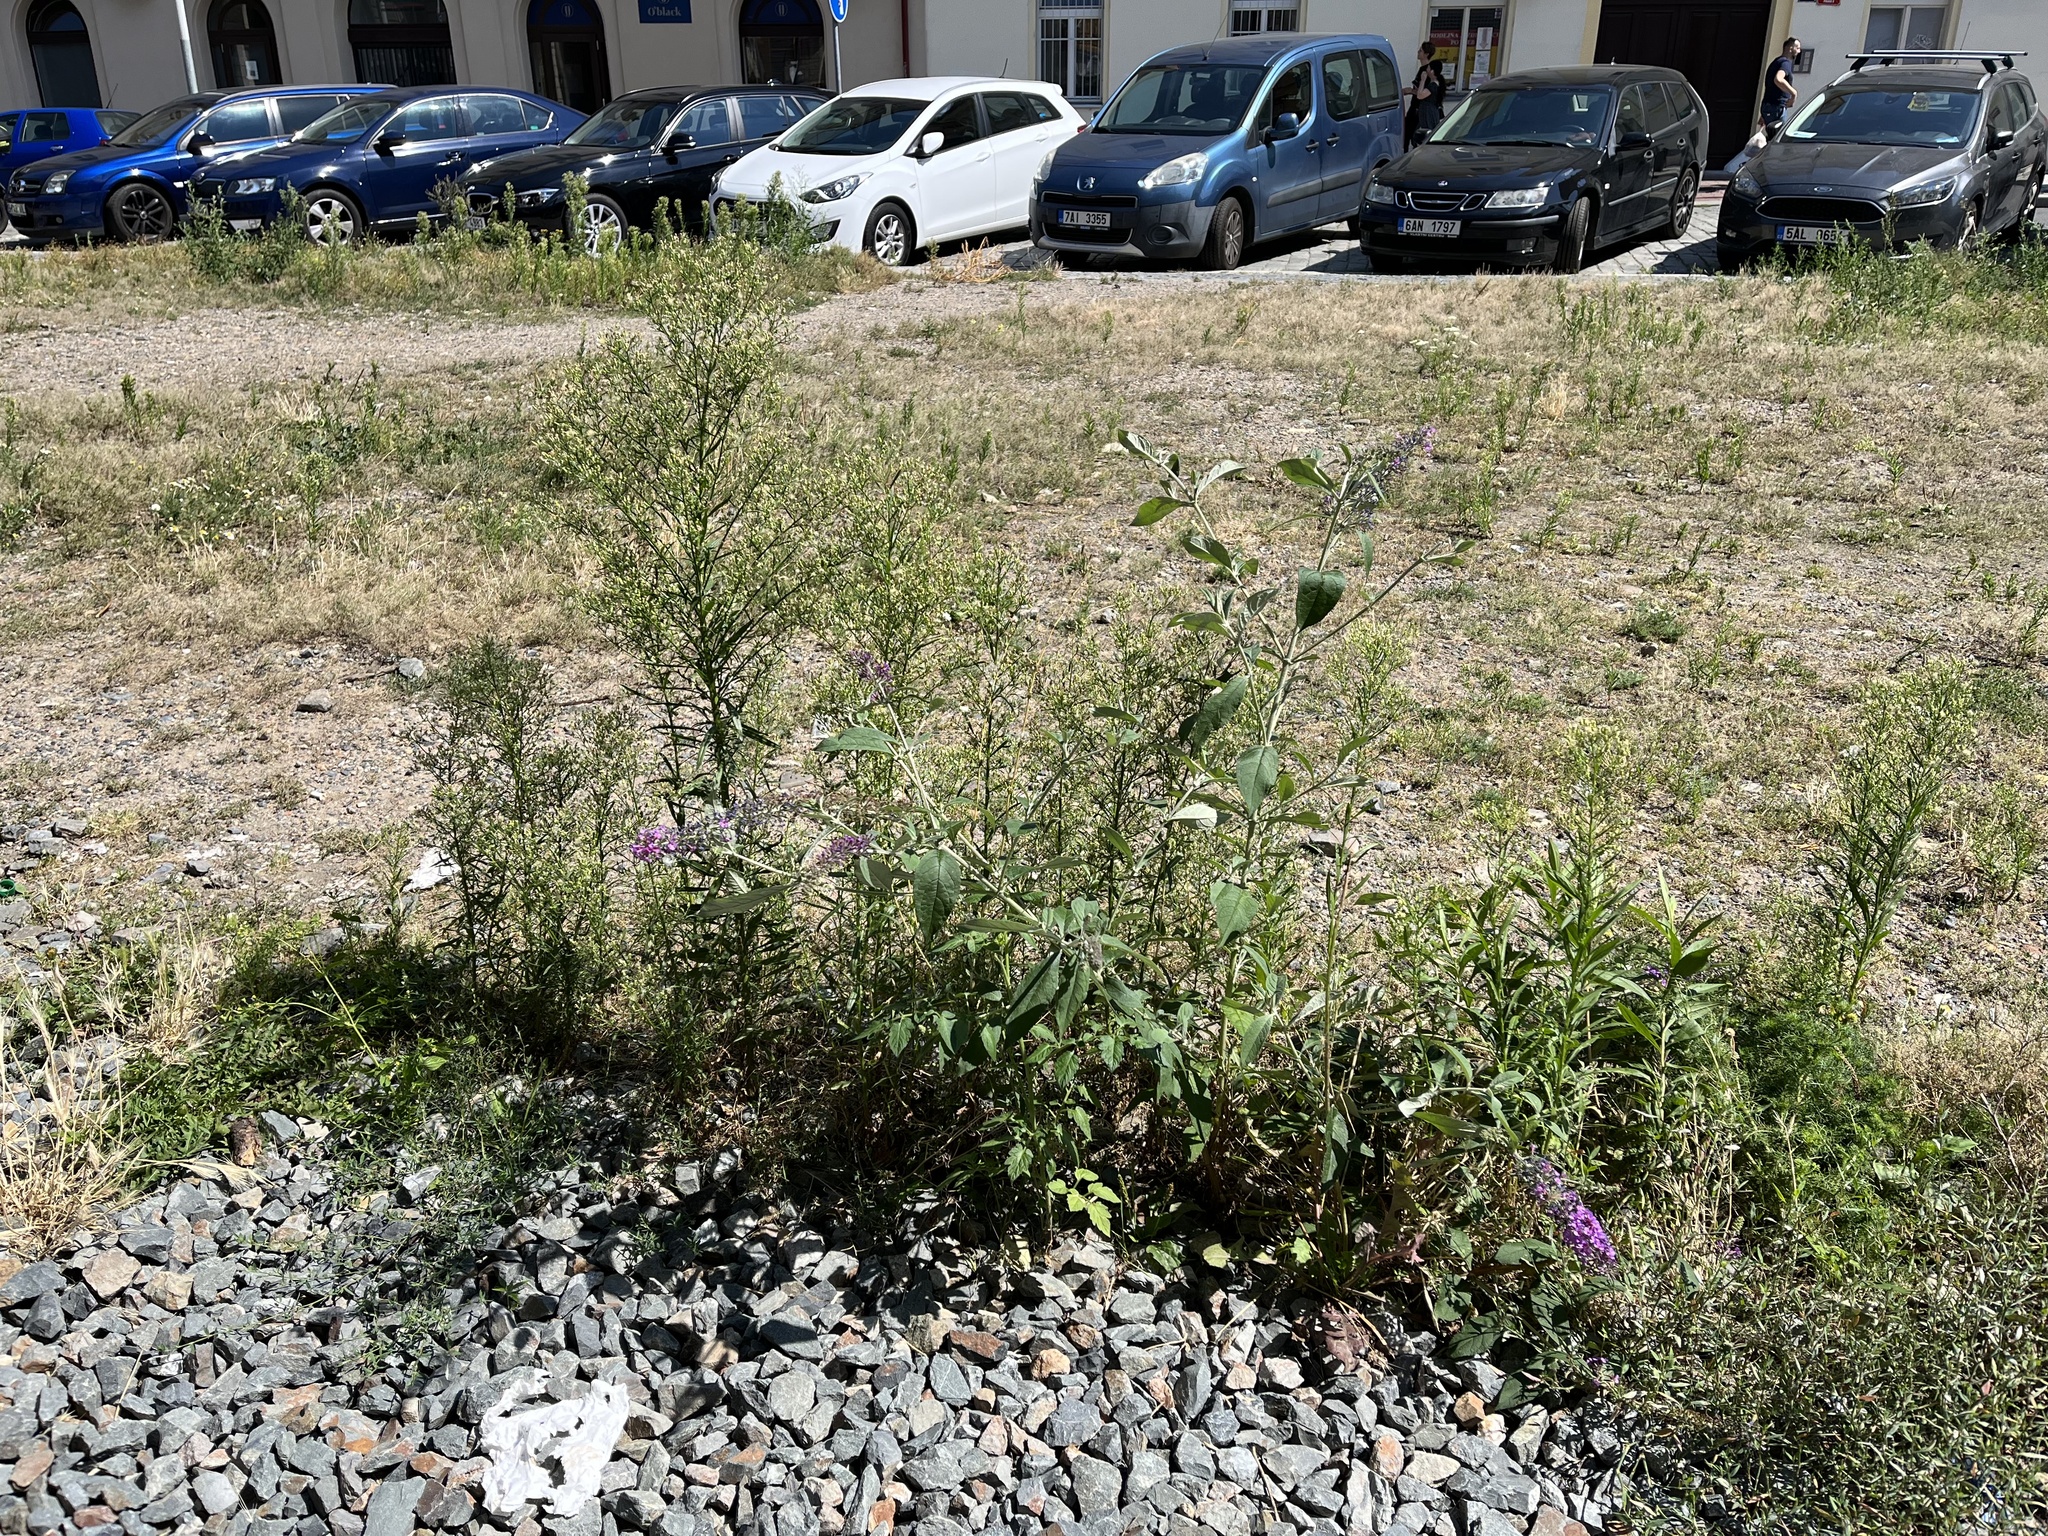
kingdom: Plantae
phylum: Tracheophyta
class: Magnoliopsida
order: Lamiales
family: Scrophulariaceae
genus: Buddleja
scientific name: Buddleja davidii
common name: Butterfly-bush
